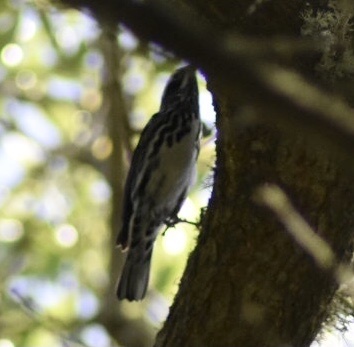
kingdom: Animalia
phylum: Chordata
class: Aves
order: Passeriformes
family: Parulidae
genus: Mniotilta
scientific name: Mniotilta varia
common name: Black-and-white warbler
